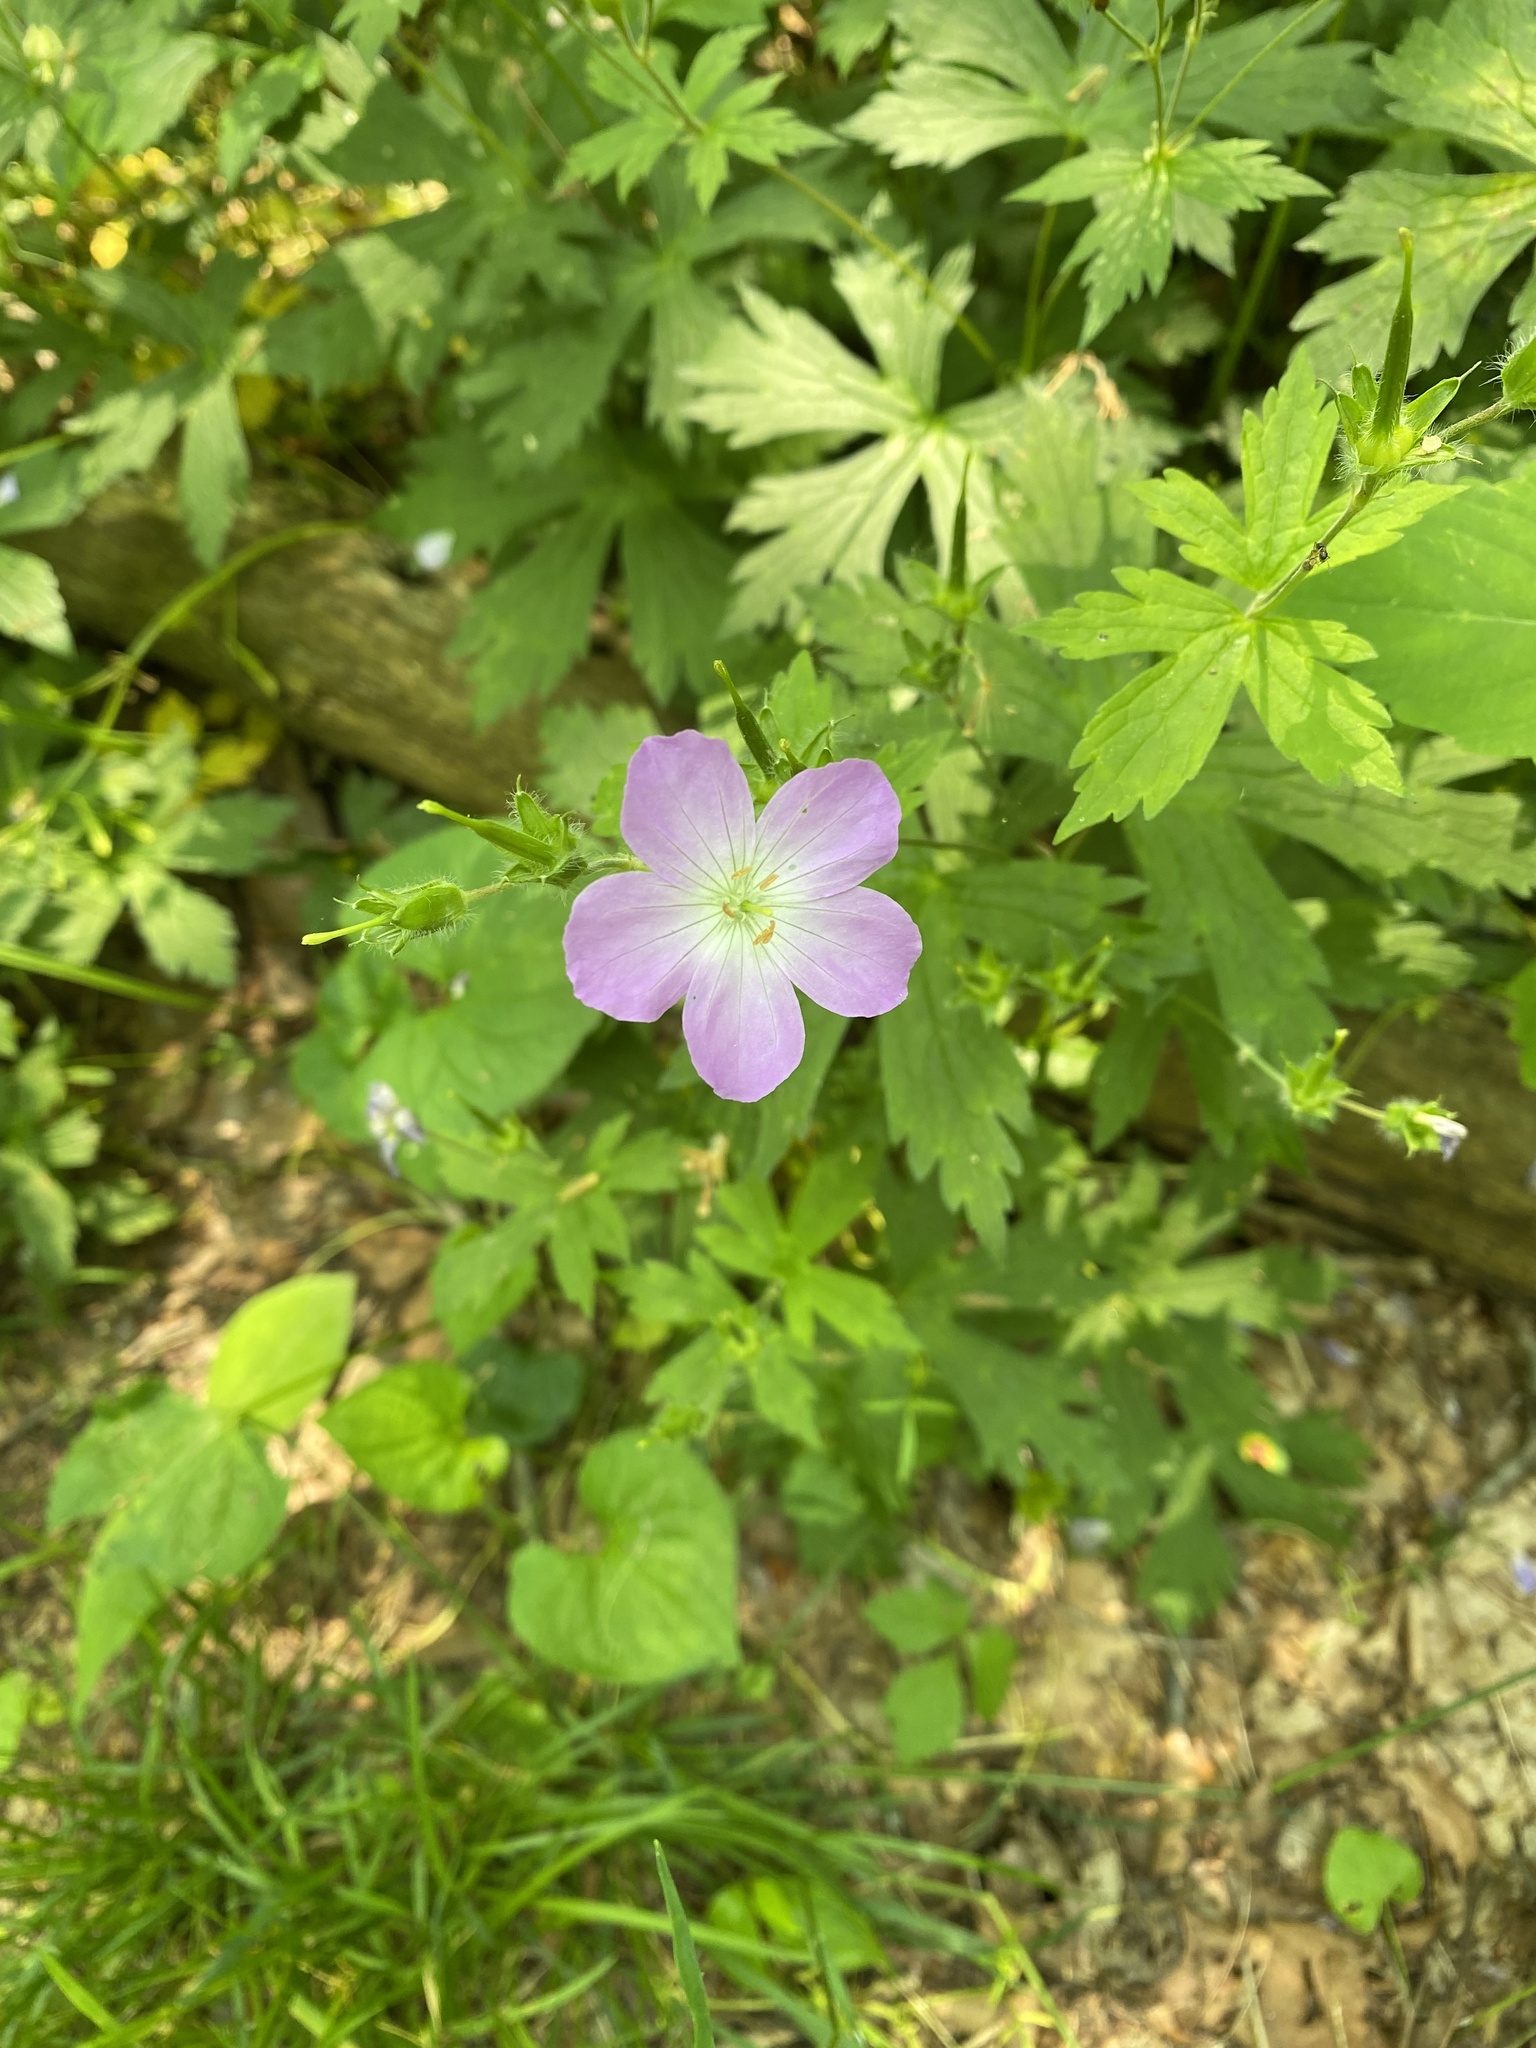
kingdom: Plantae
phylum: Tracheophyta
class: Magnoliopsida
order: Geraniales
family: Geraniaceae
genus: Geranium
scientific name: Geranium maculatum
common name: Spotted geranium
